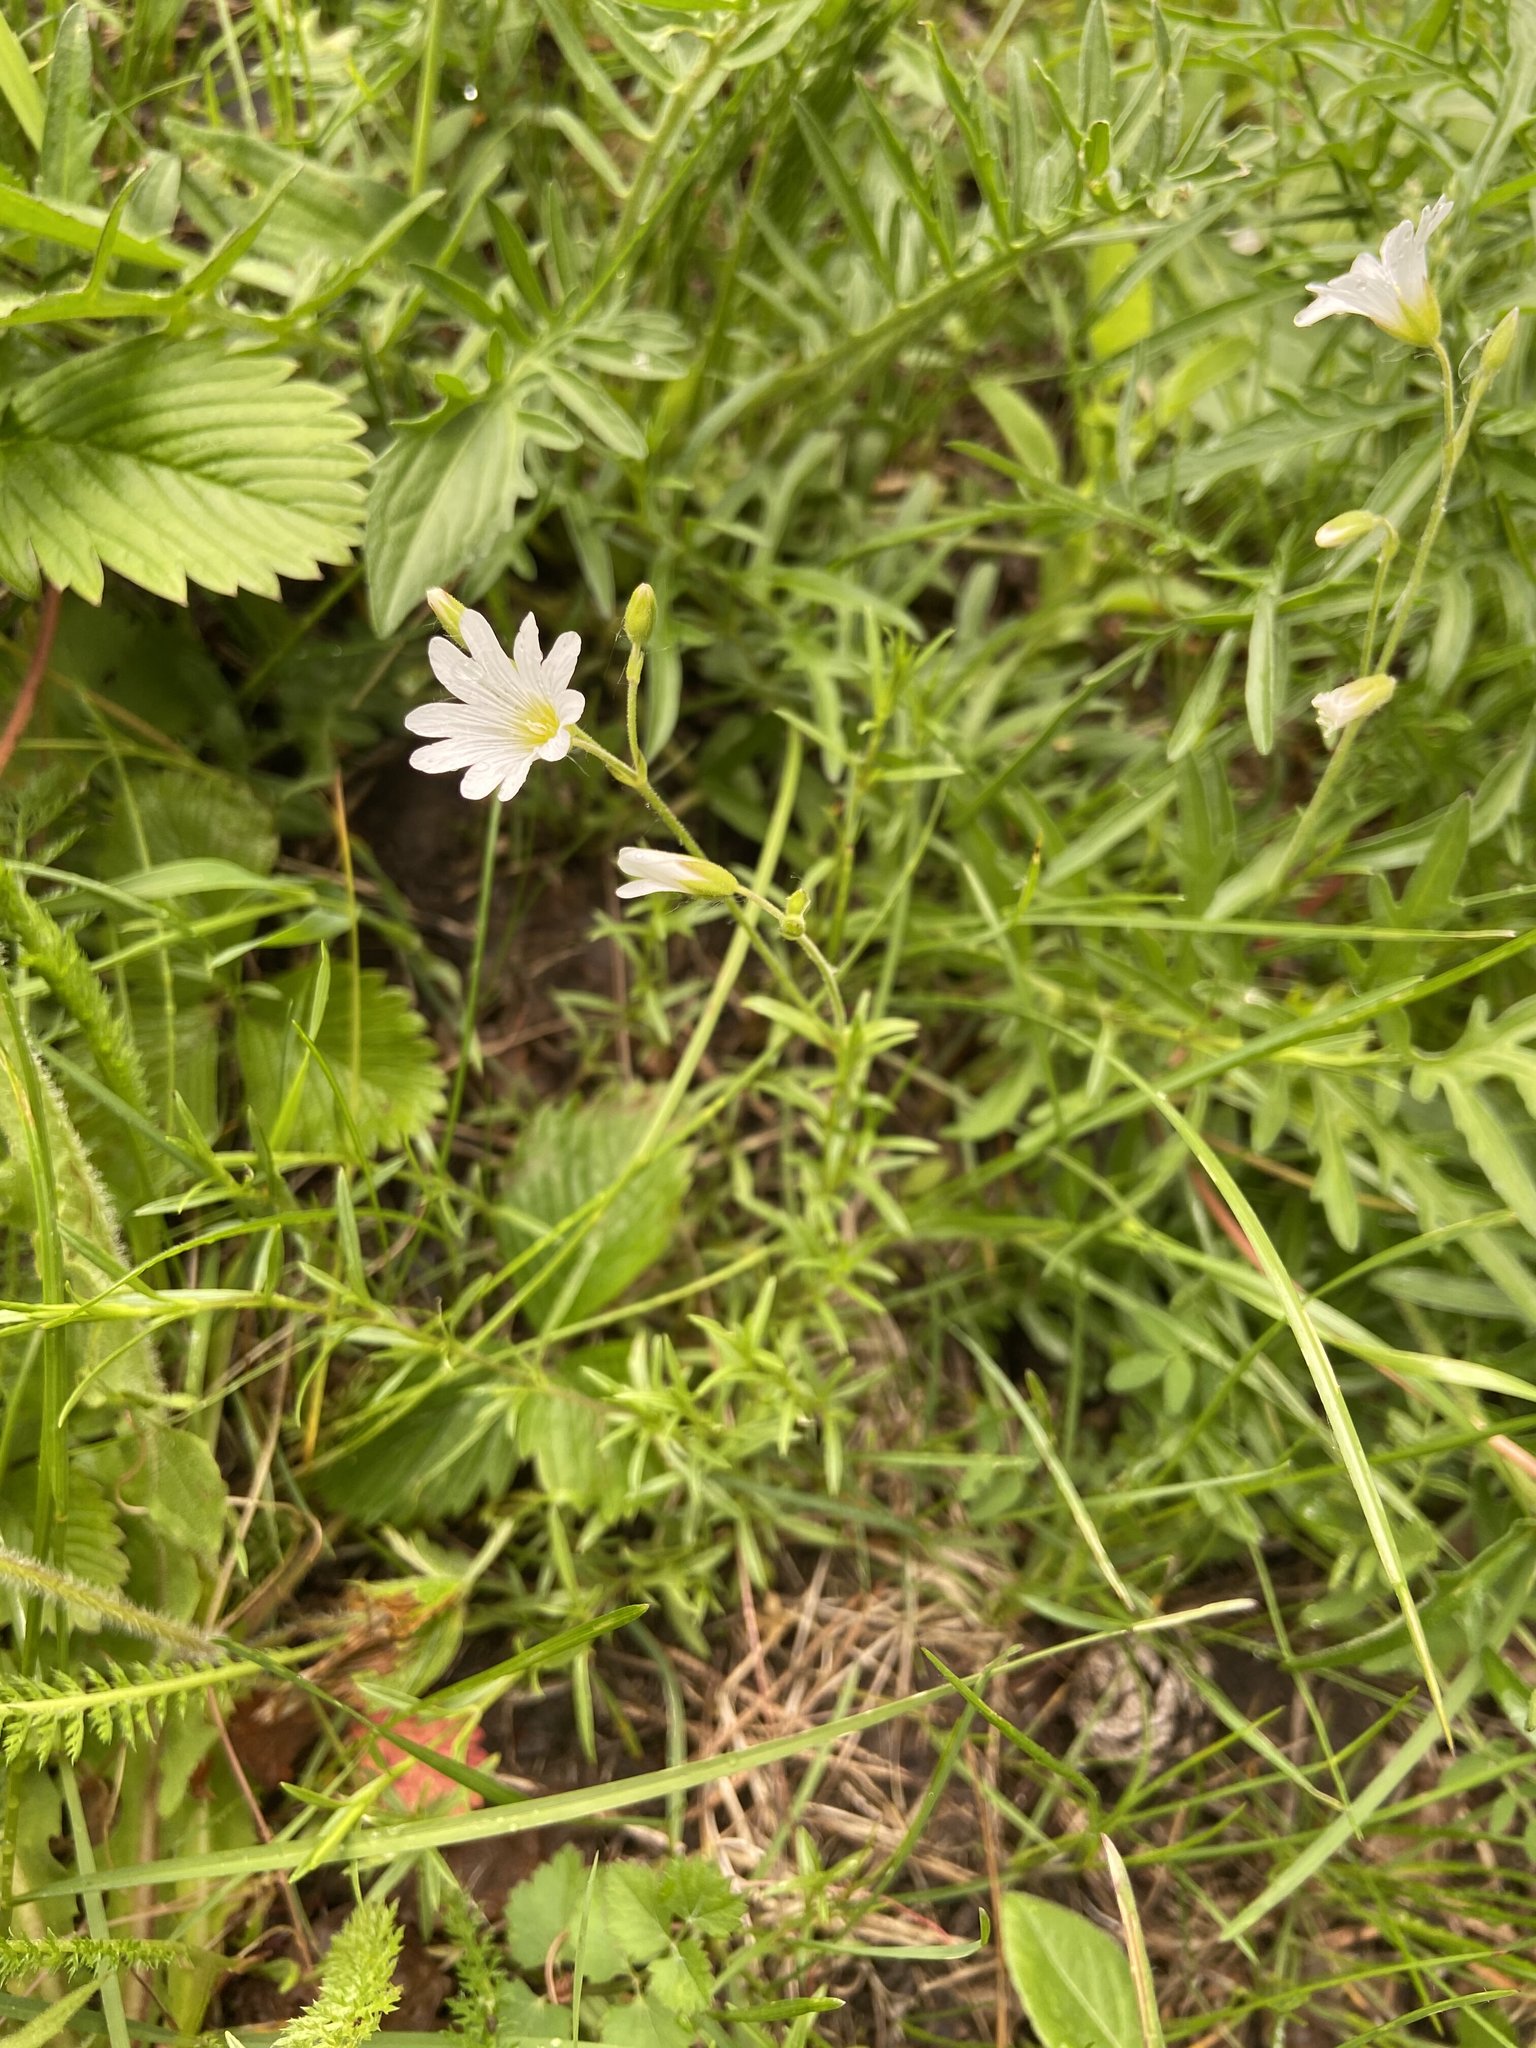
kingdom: Plantae
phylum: Tracheophyta
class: Magnoliopsida
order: Caryophyllales
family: Caryophyllaceae
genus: Cerastium
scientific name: Cerastium arvense
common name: Field mouse-ear
